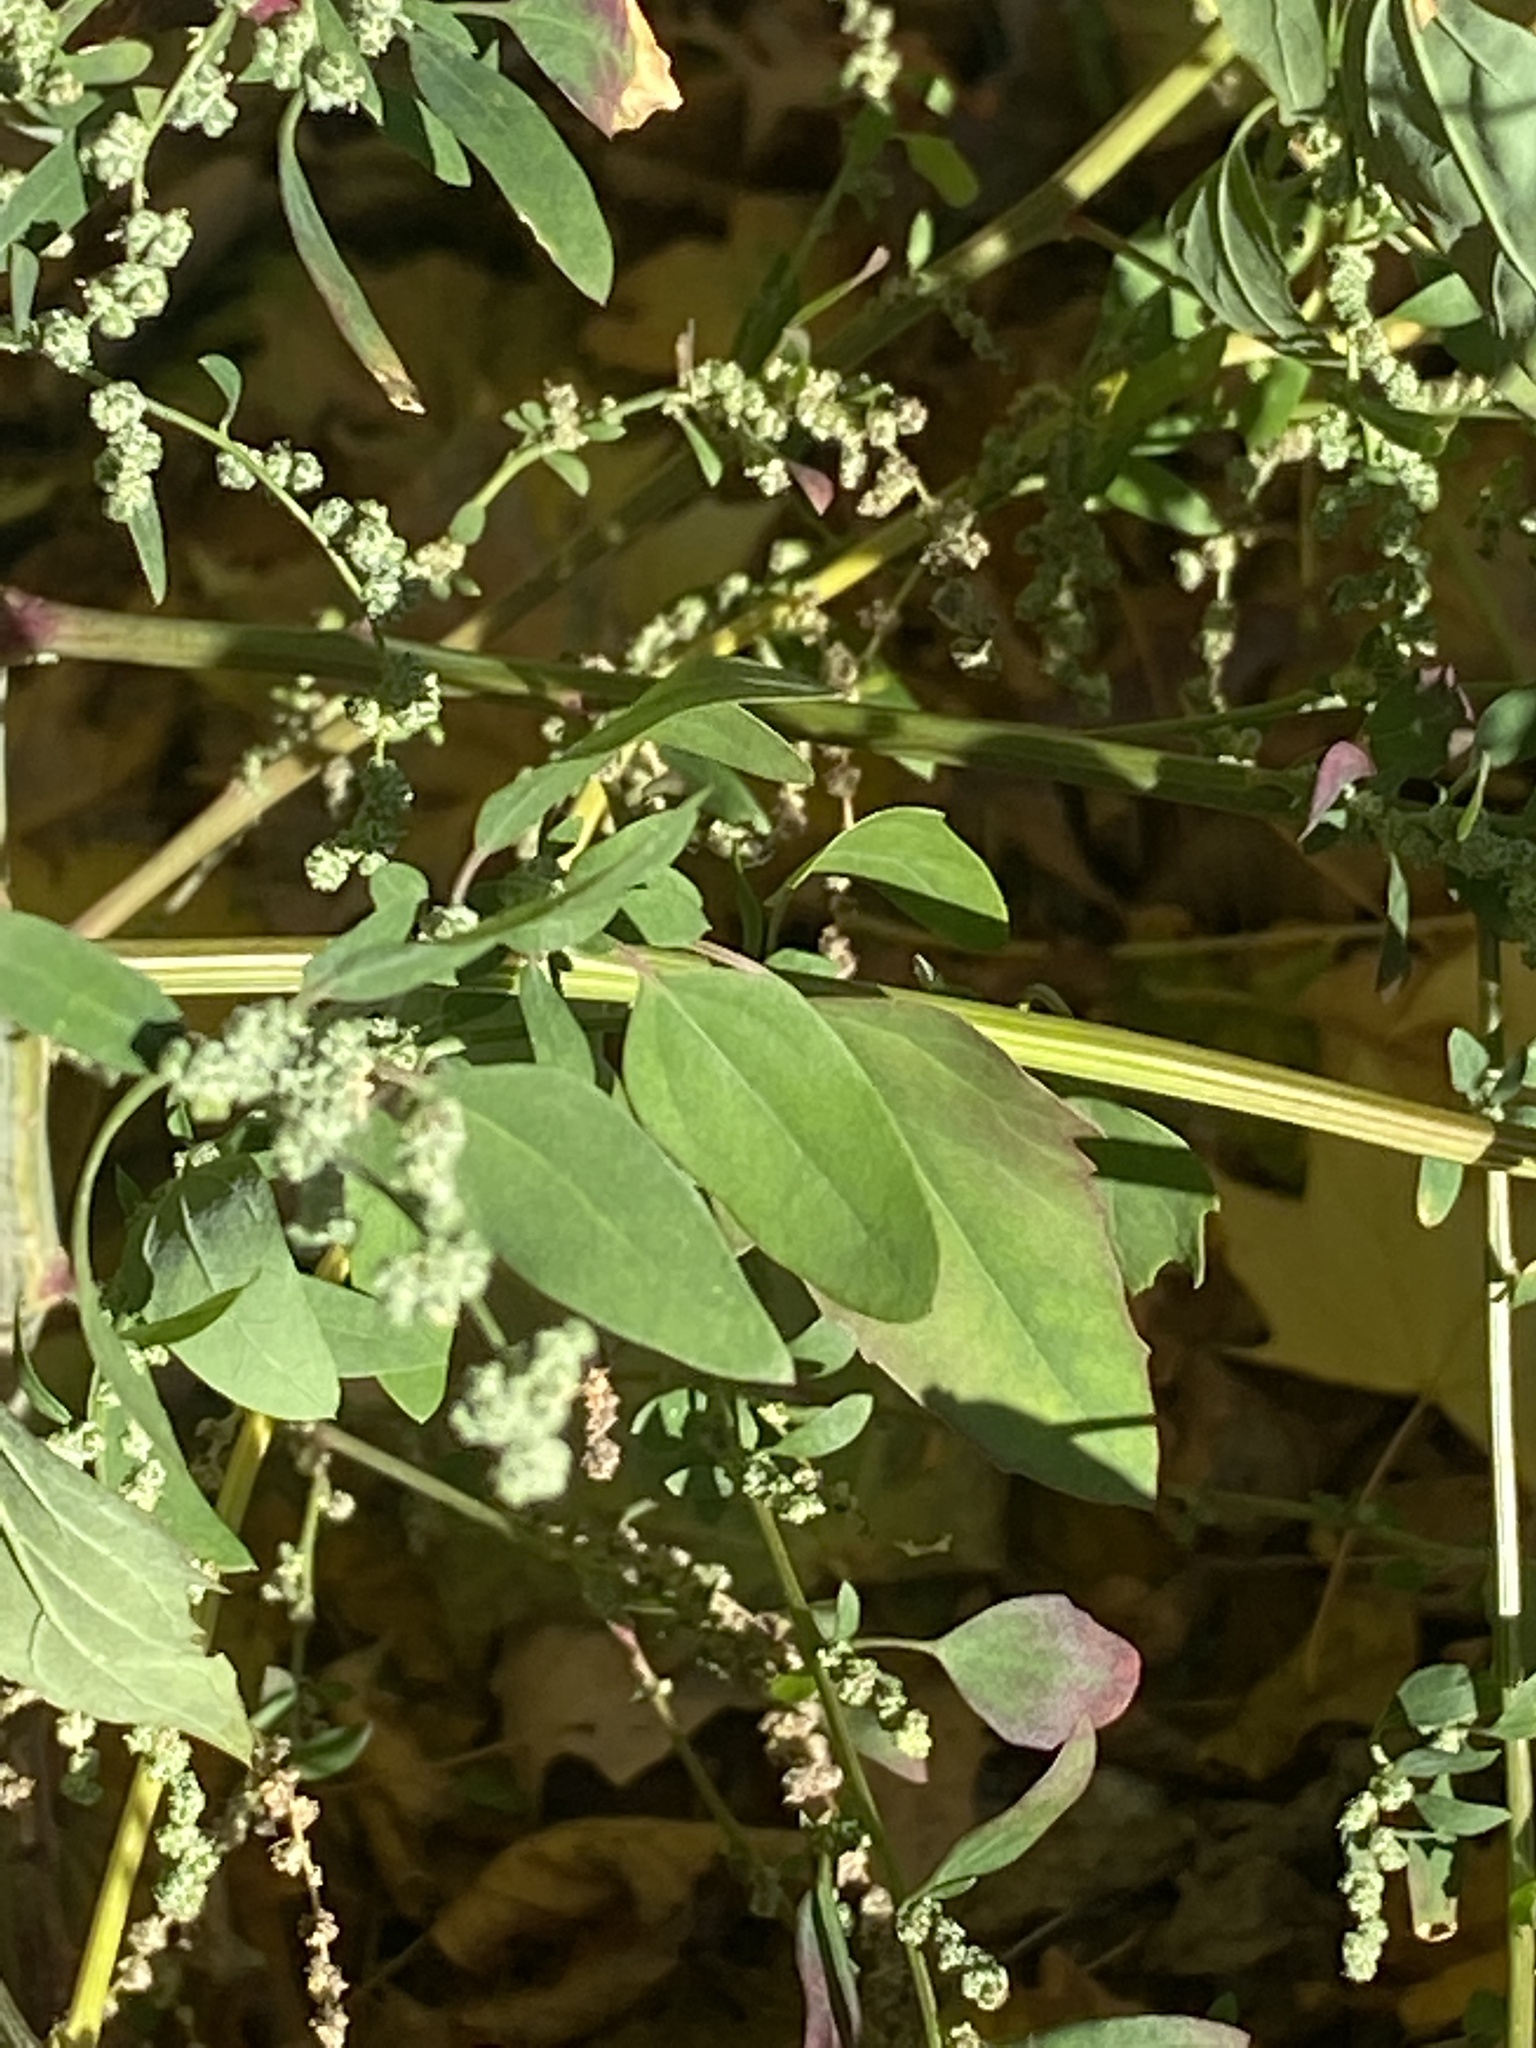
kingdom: Plantae
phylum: Tracheophyta
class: Magnoliopsida
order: Caryophyllales
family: Amaranthaceae
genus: Chenopodium
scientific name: Chenopodium album
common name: Fat-hen
